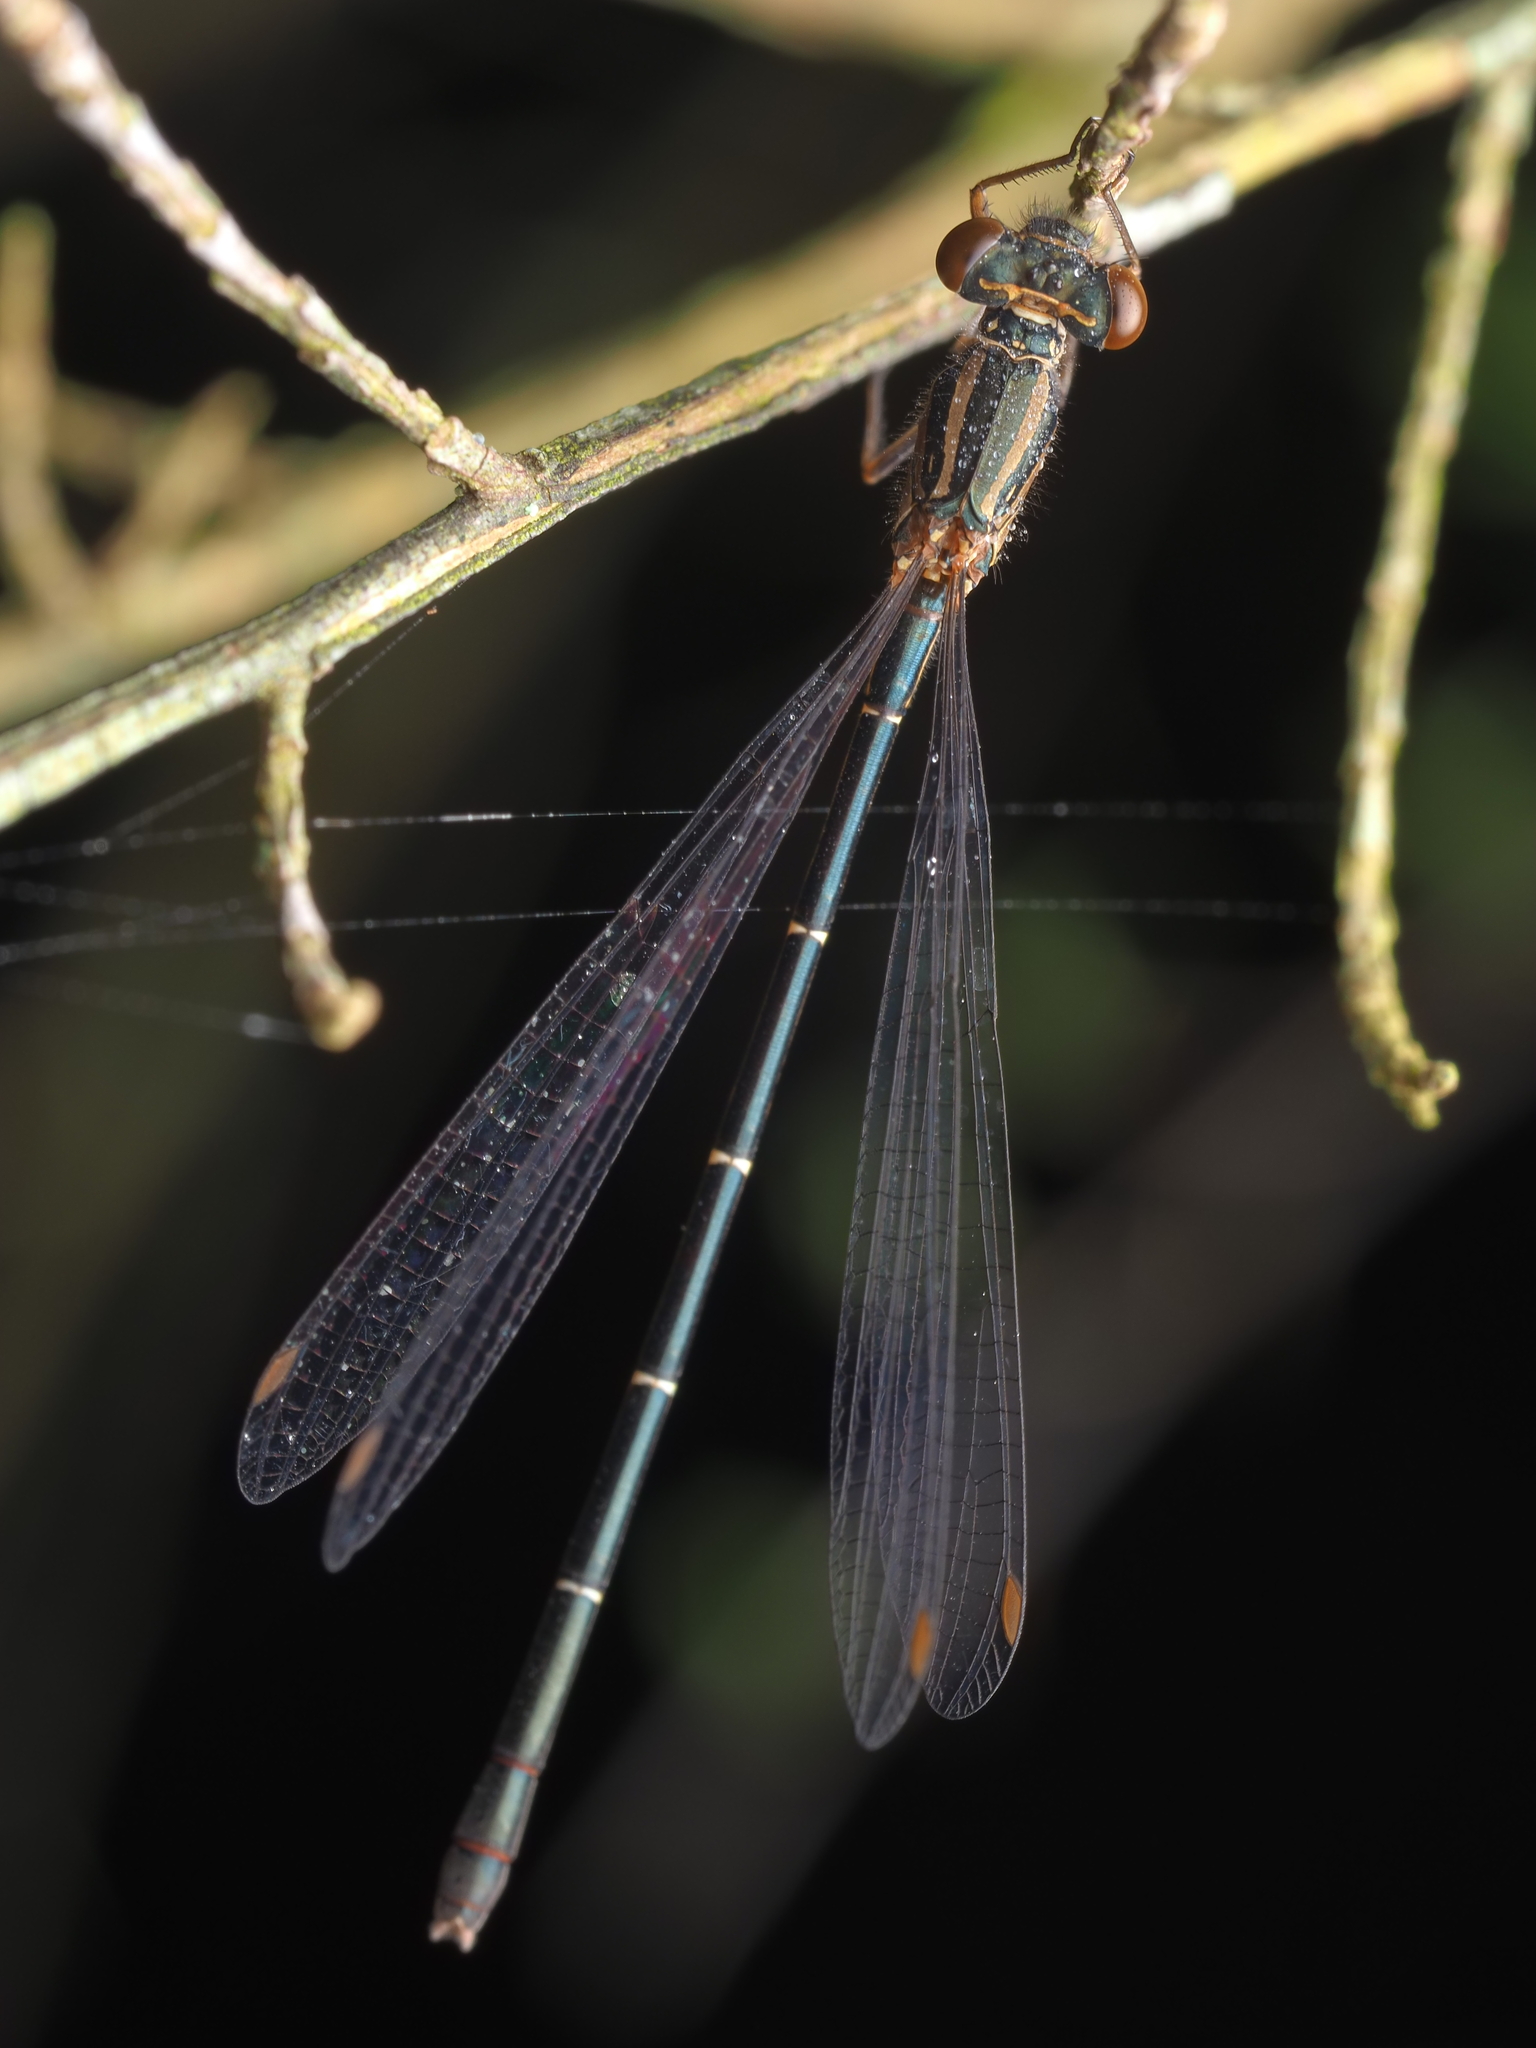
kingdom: Animalia
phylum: Arthropoda
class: Insecta
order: Odonata
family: Coenagrionidae
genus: Xanthocnemis
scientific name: Xanthocnemis zealandica
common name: Common redcoat damselfly
